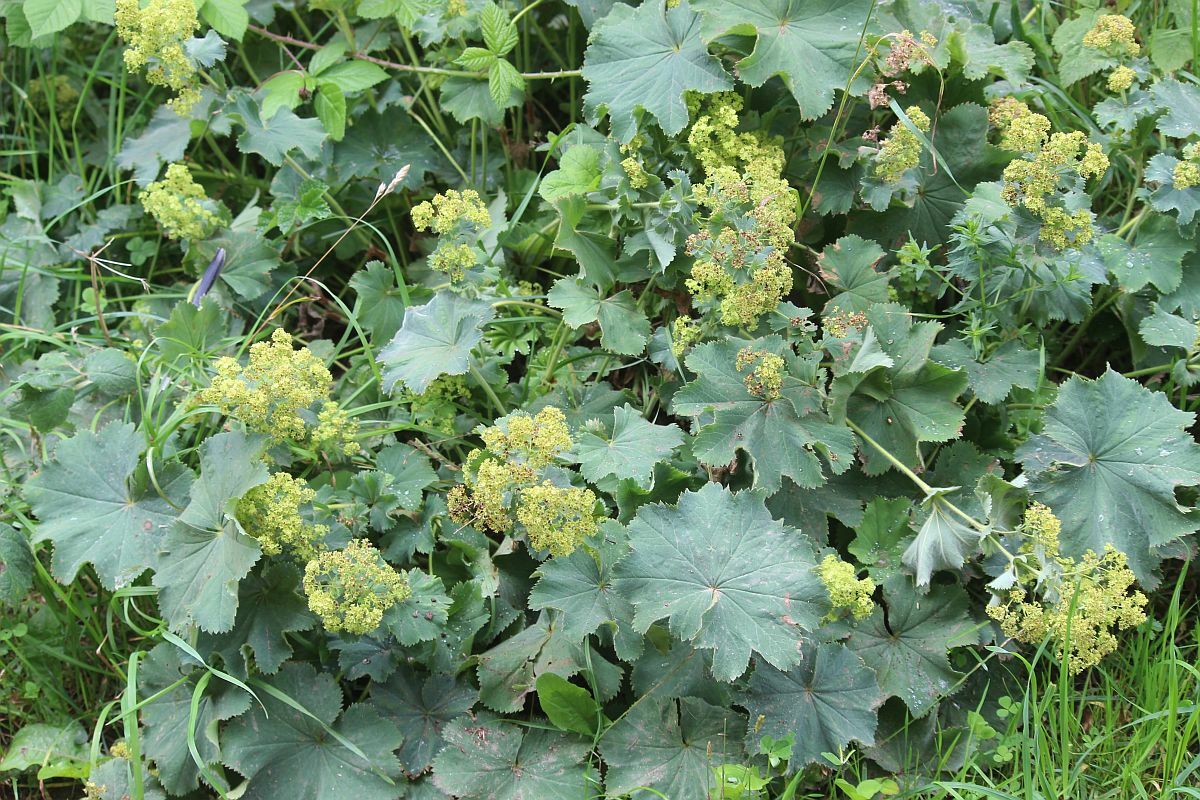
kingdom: Plantae
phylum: Tracheophyta
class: Magnoliopsida
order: Rosales
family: Rosaceae
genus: Alchemilla
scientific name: Alchemilla mollis
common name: Lady's-mantle
